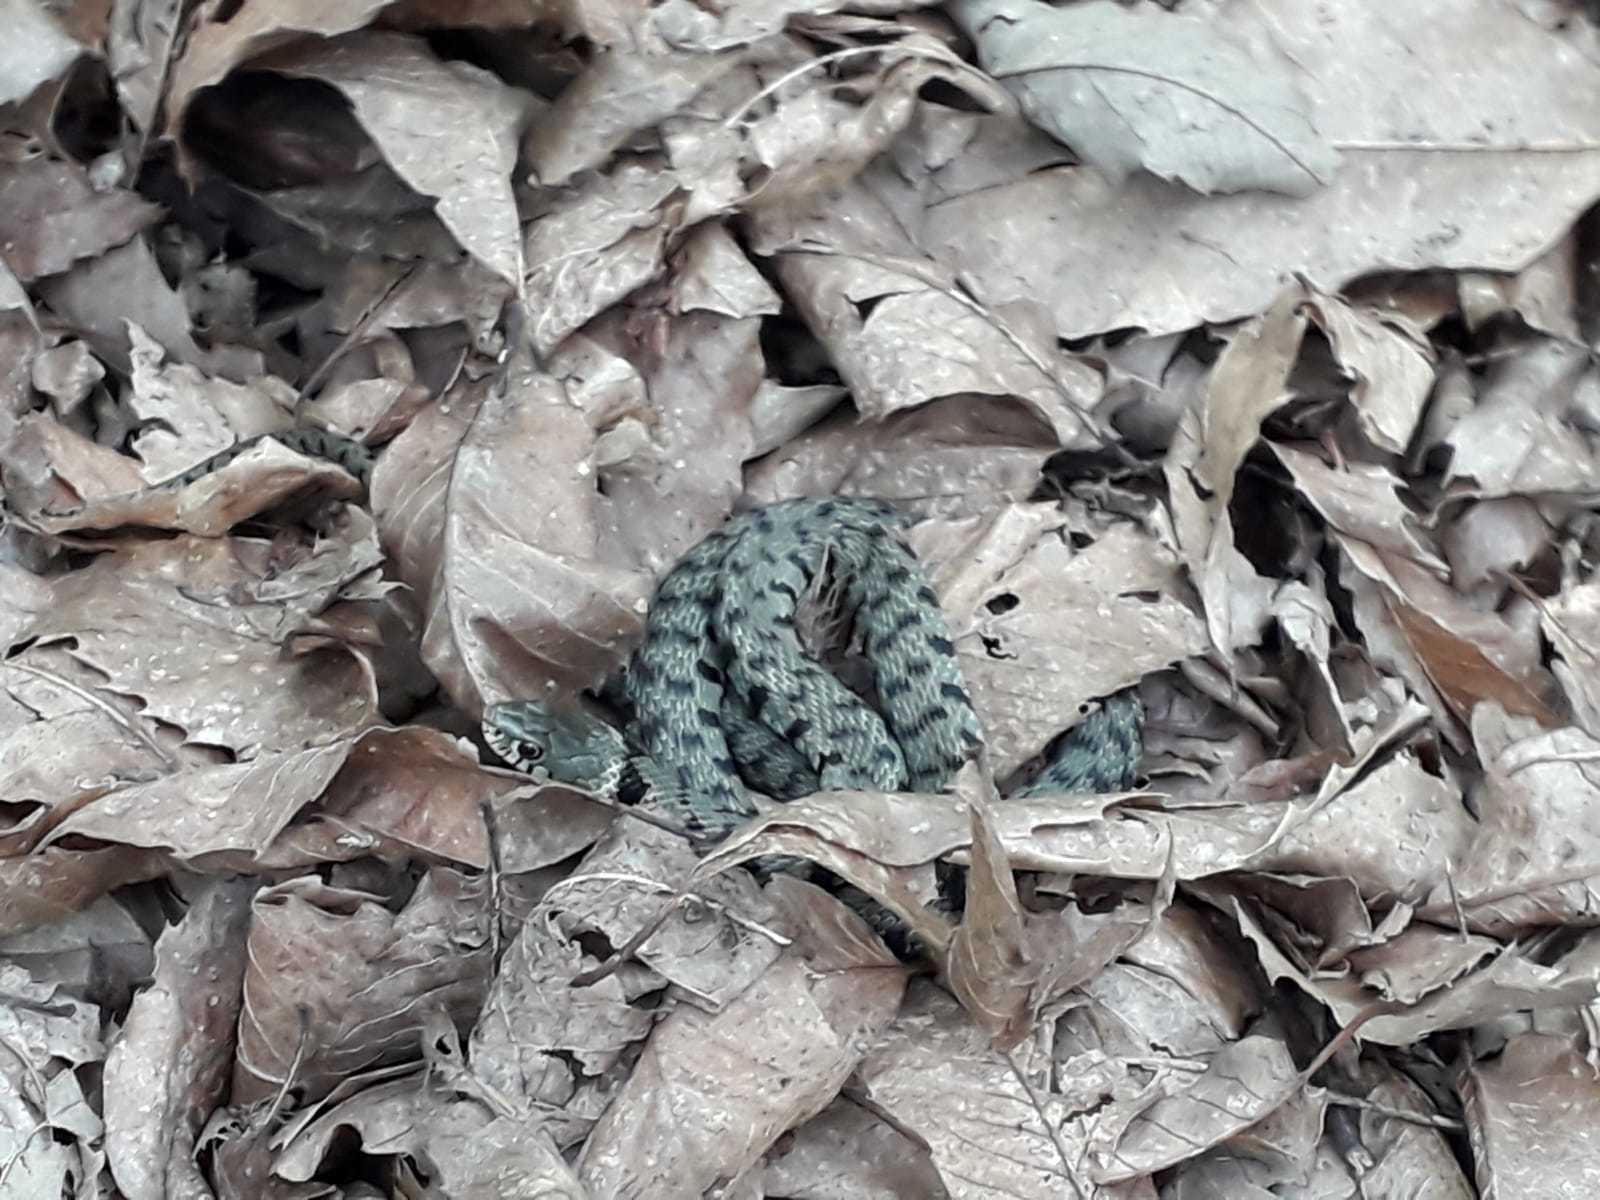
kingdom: Animalia
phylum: Chordata
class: Squamata
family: Colubridae
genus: Natrix
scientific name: Natrix helvetica
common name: Banded grass snake
